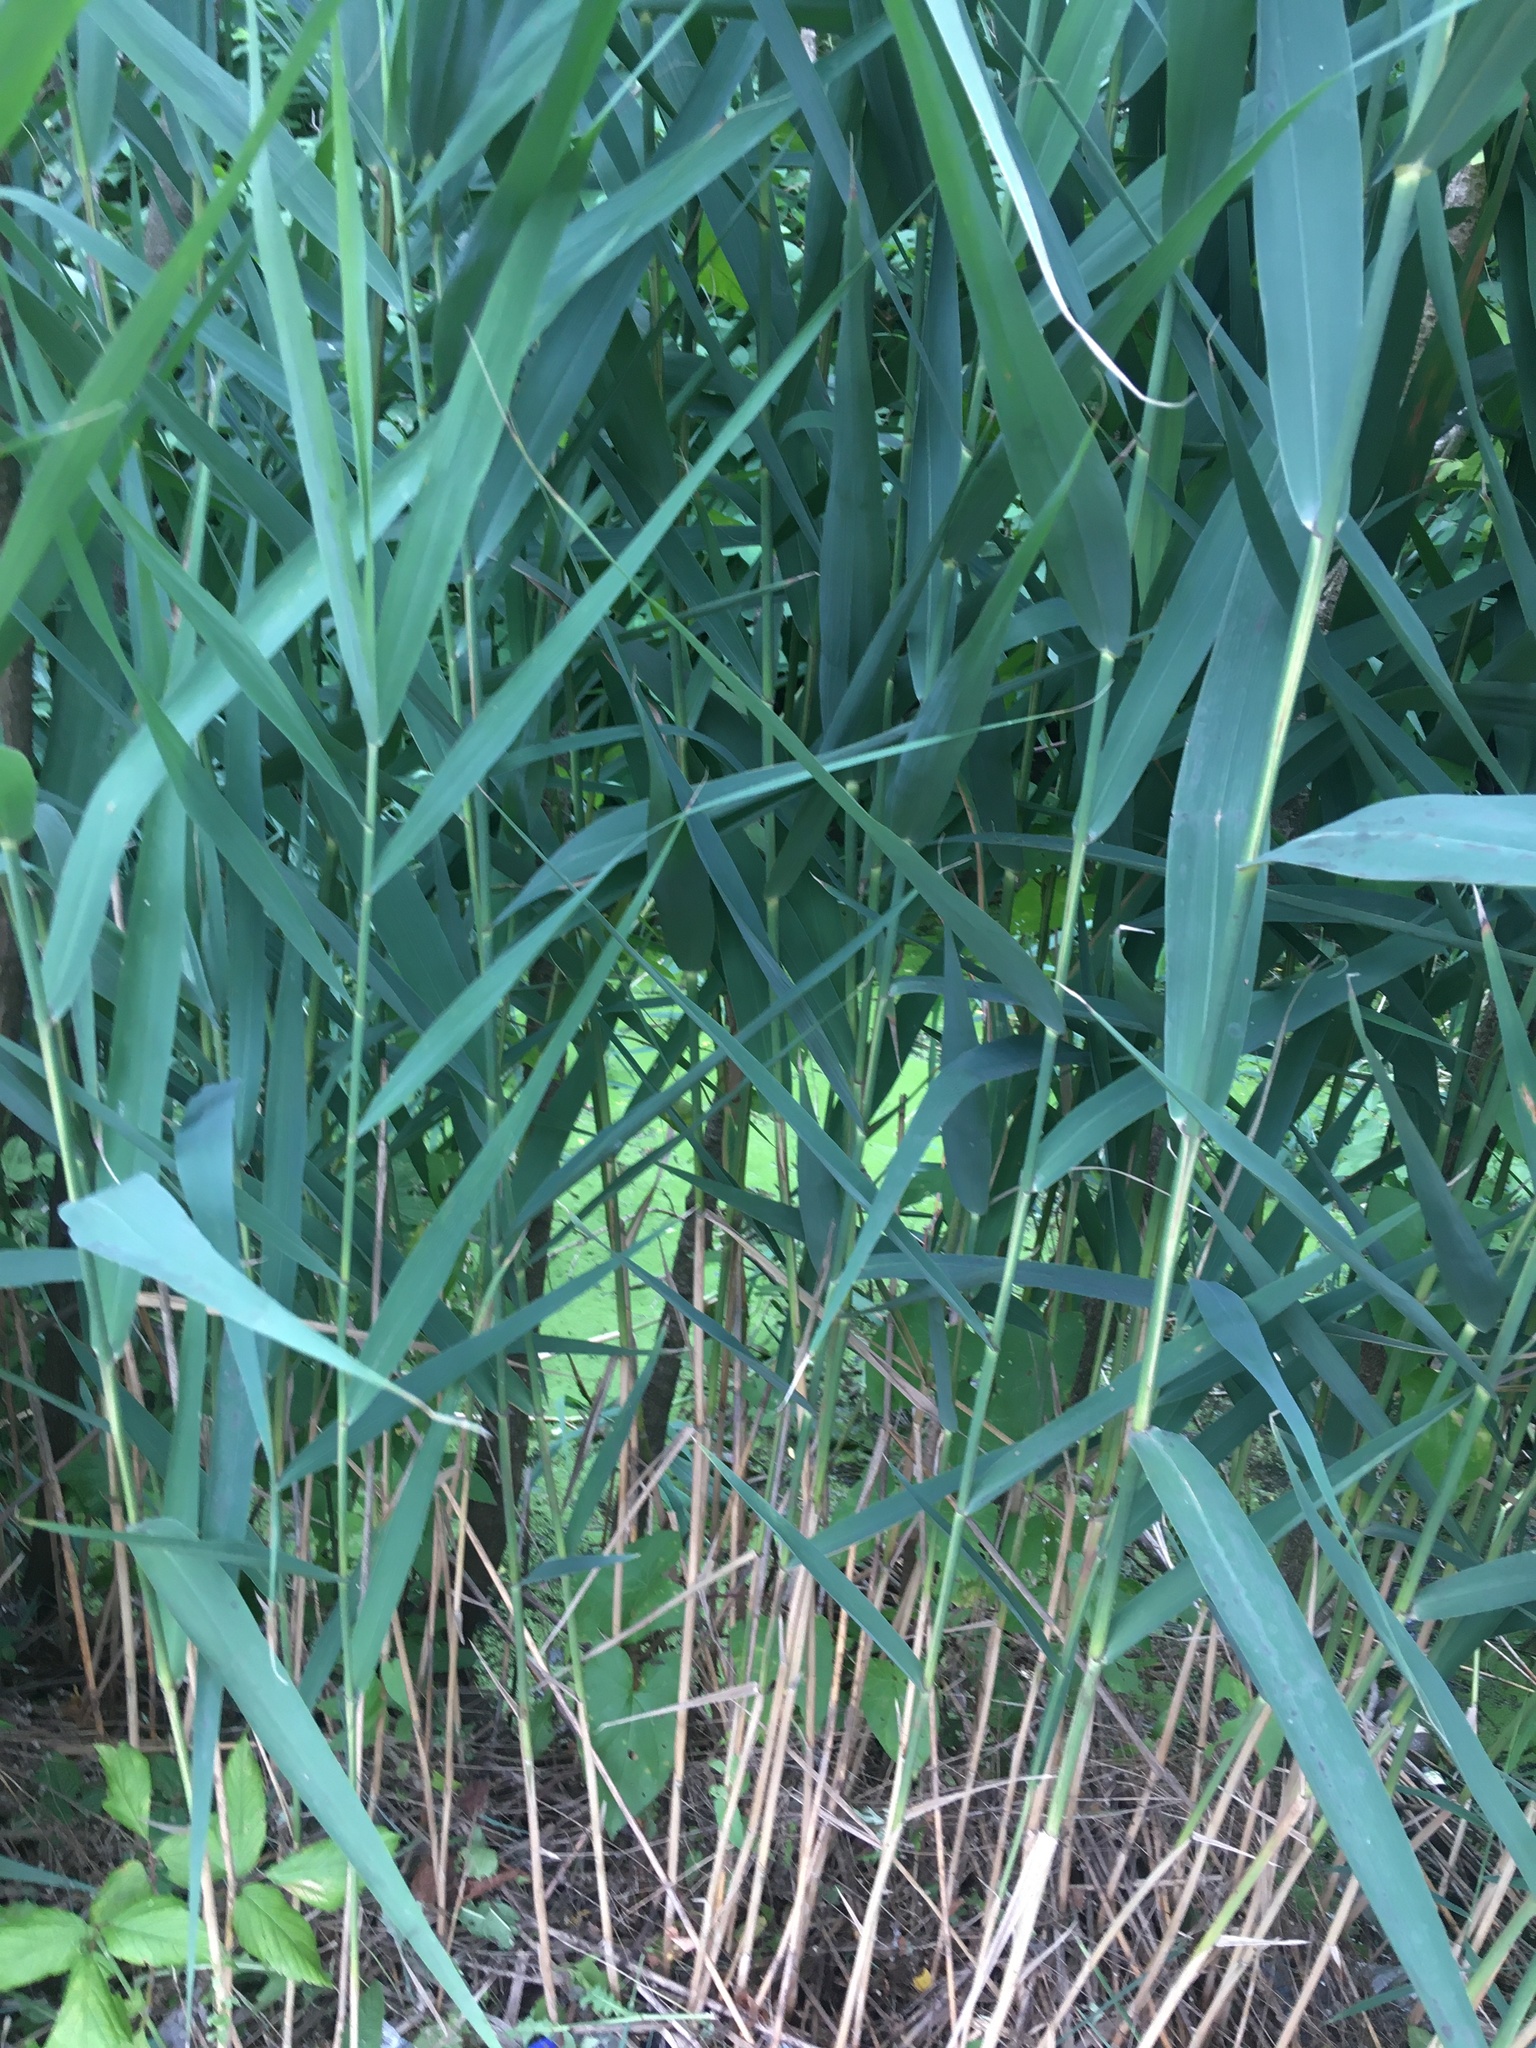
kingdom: Plantae
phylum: Tracheophyta
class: Liliopsida
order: Poales
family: Poaceae
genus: Phragmites
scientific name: Phragmites australis
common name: Common reed
